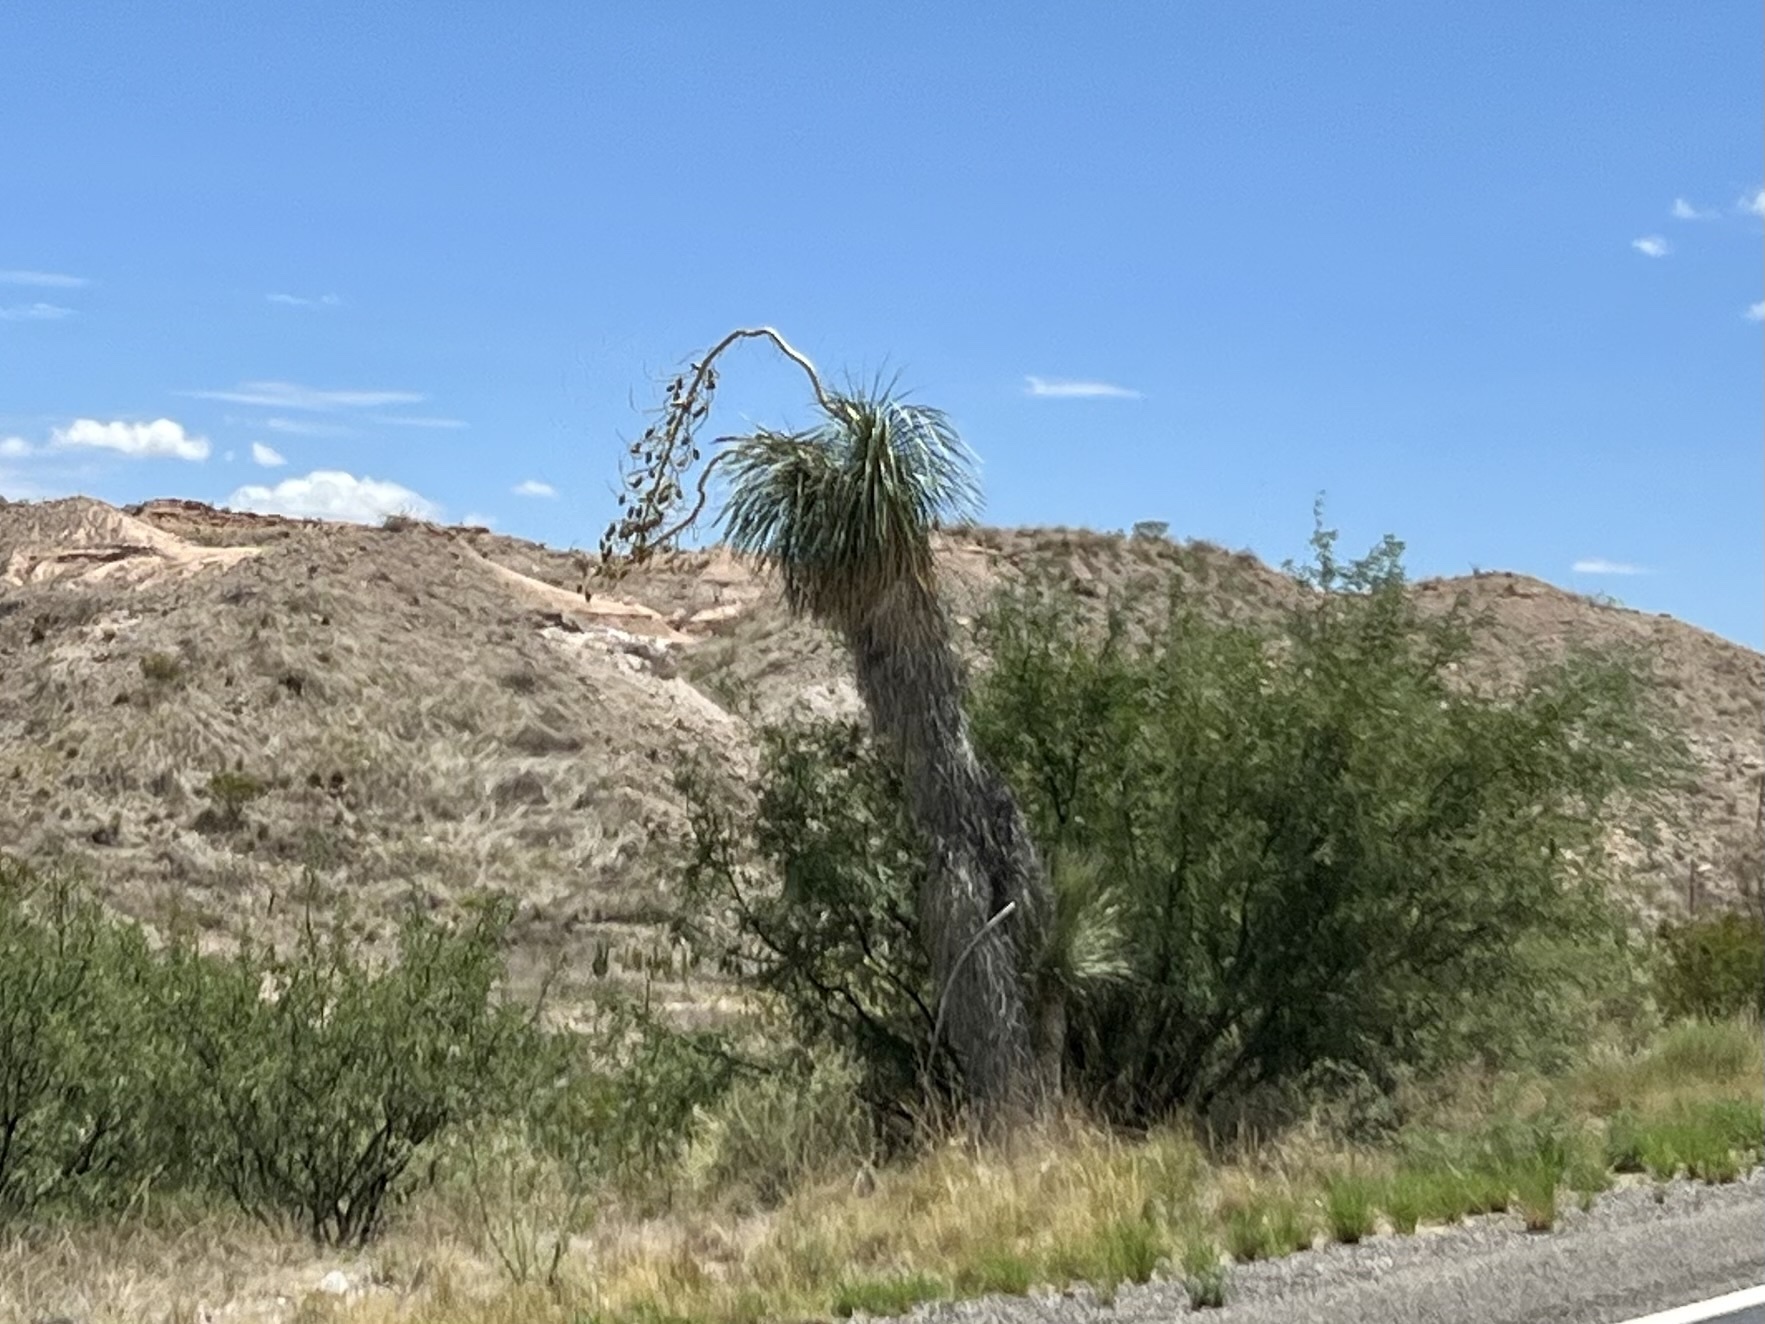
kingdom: Plantae
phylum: Tracheophyta
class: Liliopsida
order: Asparagales
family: Asparagaceae
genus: Yucca
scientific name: Yucca elata
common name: Palmella
